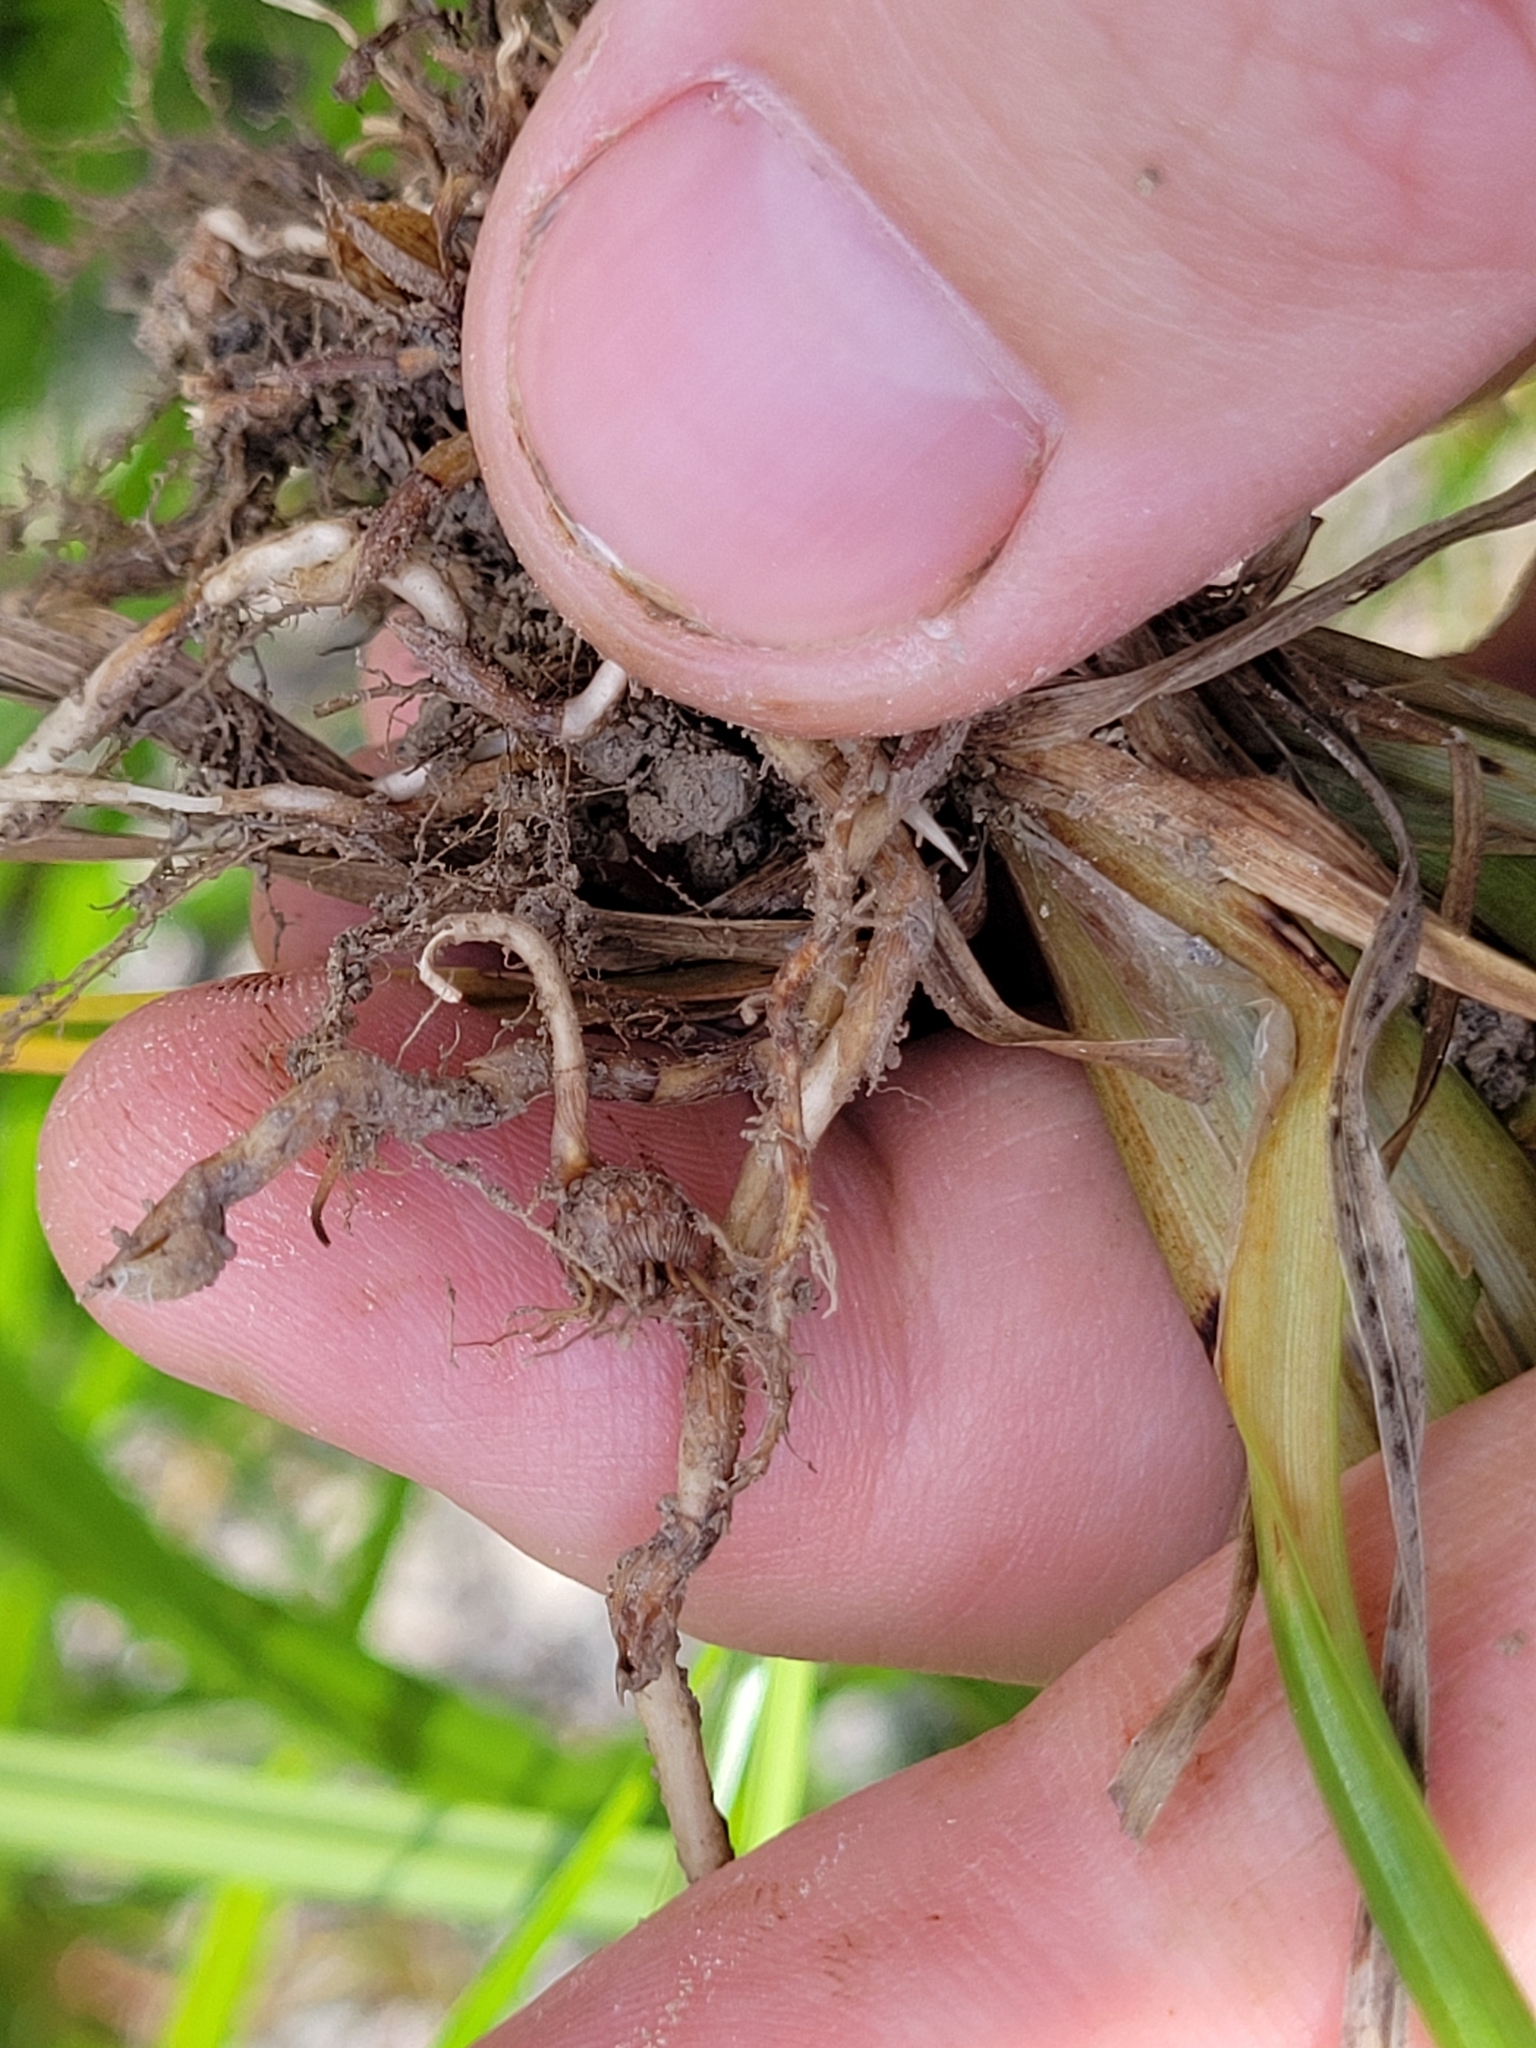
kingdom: Plantae
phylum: Tracheophyta
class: Liliopsida
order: Poales
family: Cyperaceae
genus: Cyperus
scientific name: Cyperus esculentus
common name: Yellow nutsedge
